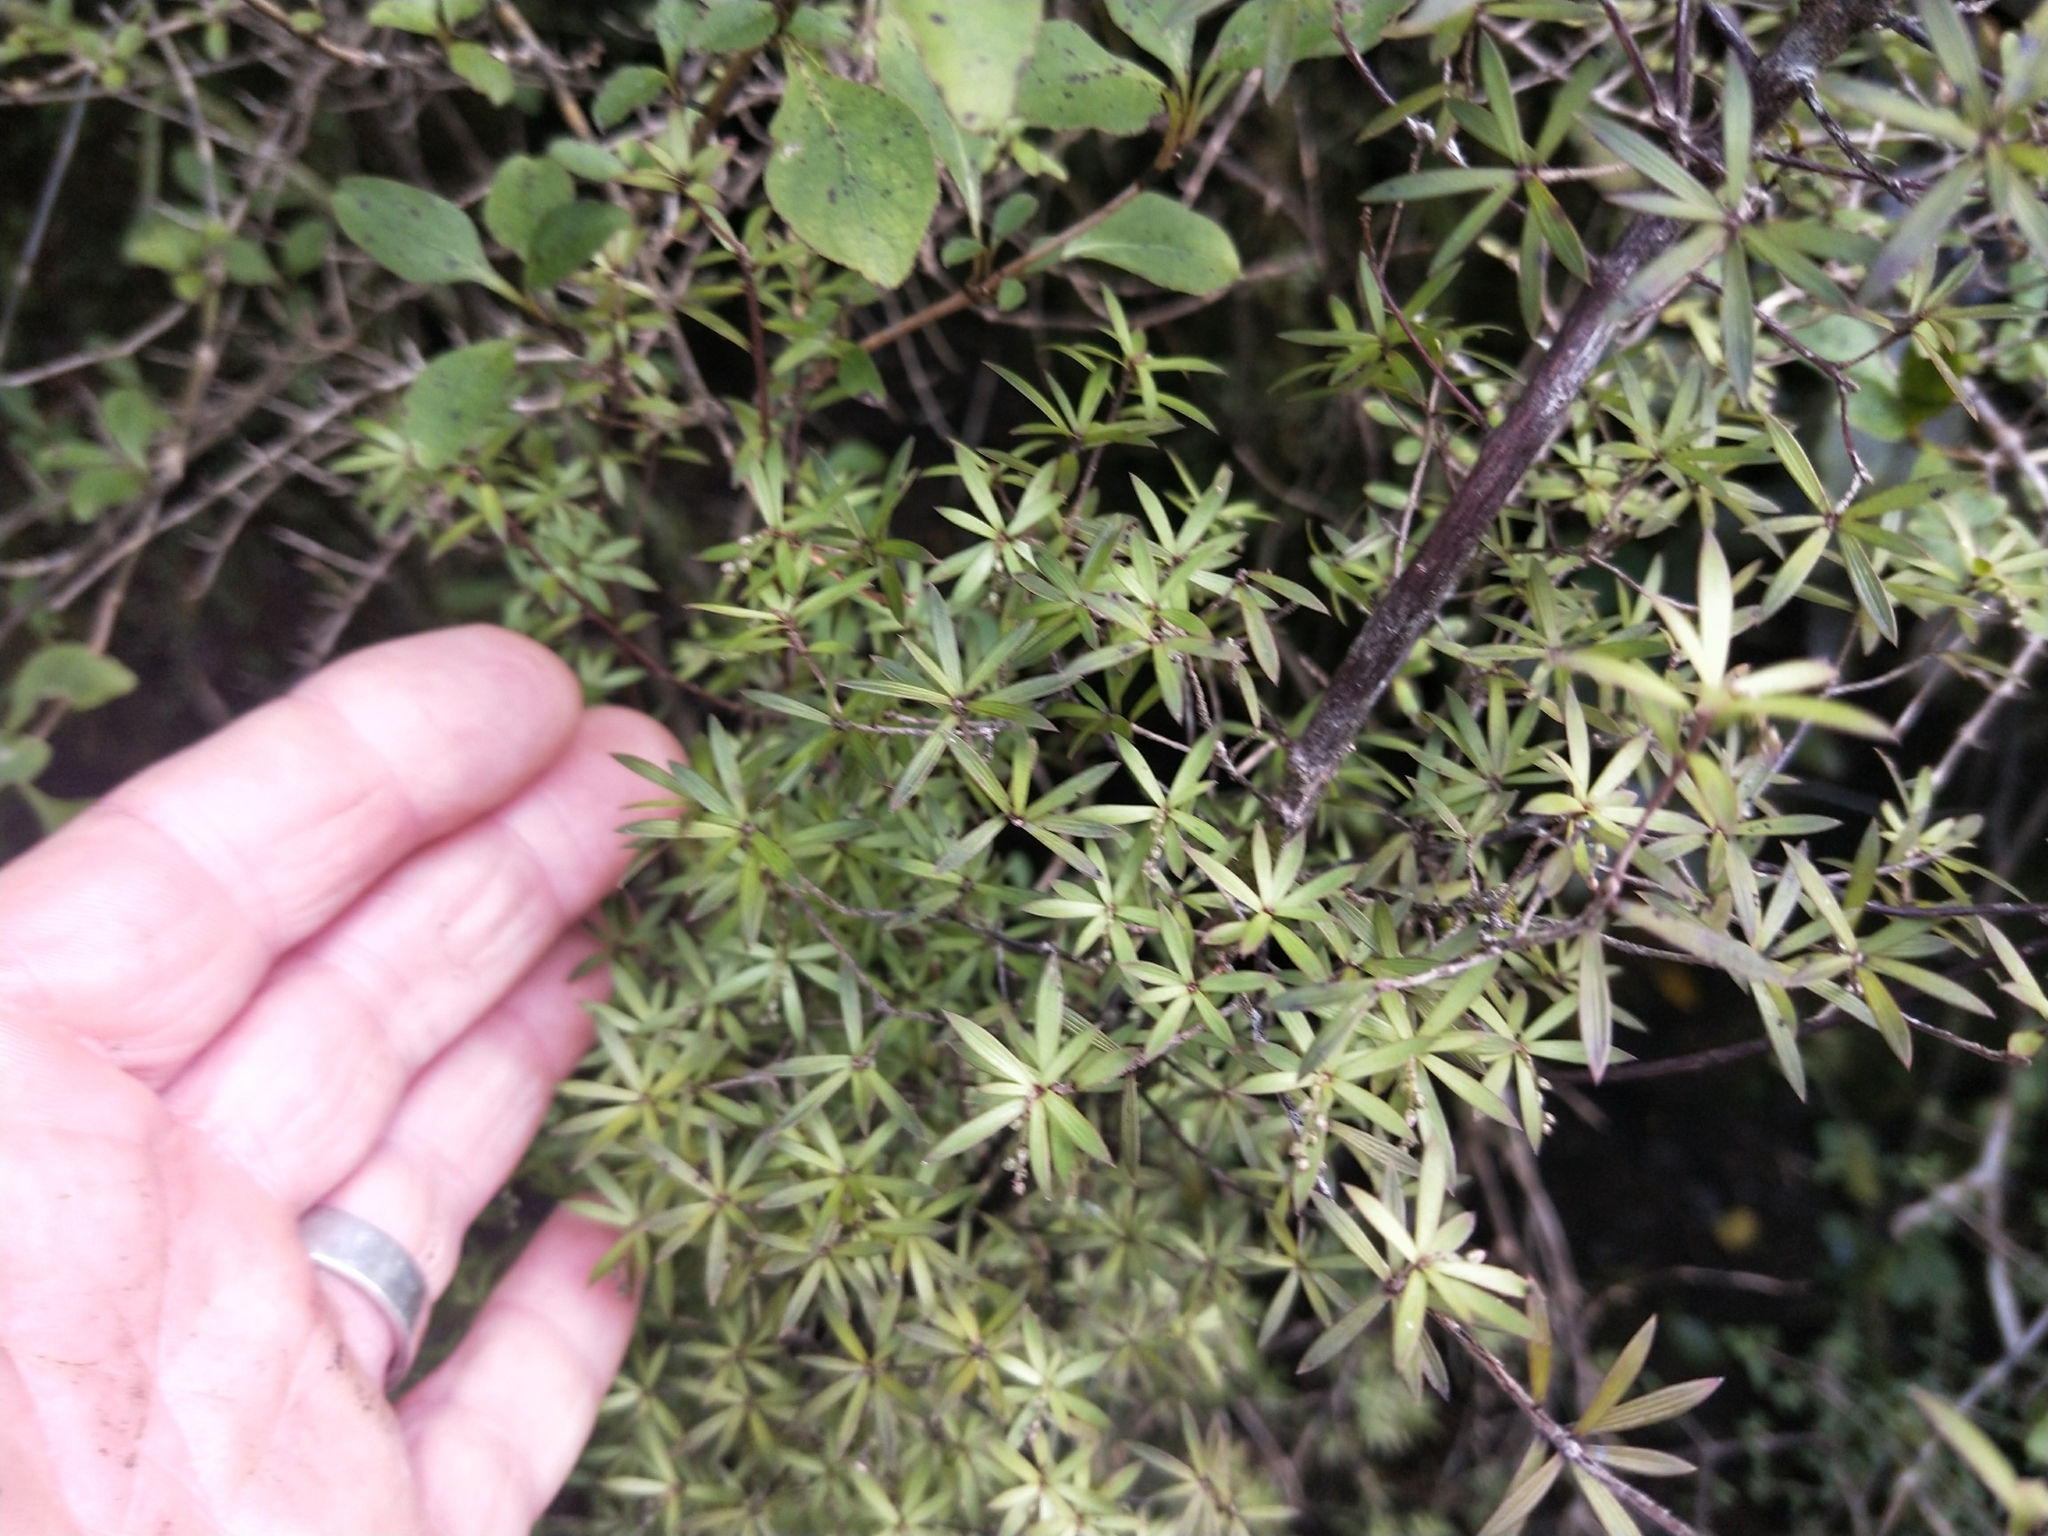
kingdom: Plantae
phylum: Tracheophyta
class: Magnoliopsida
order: Ericales
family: Ericaceae
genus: Leucopogon
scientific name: Leucopogon fasciculatus
